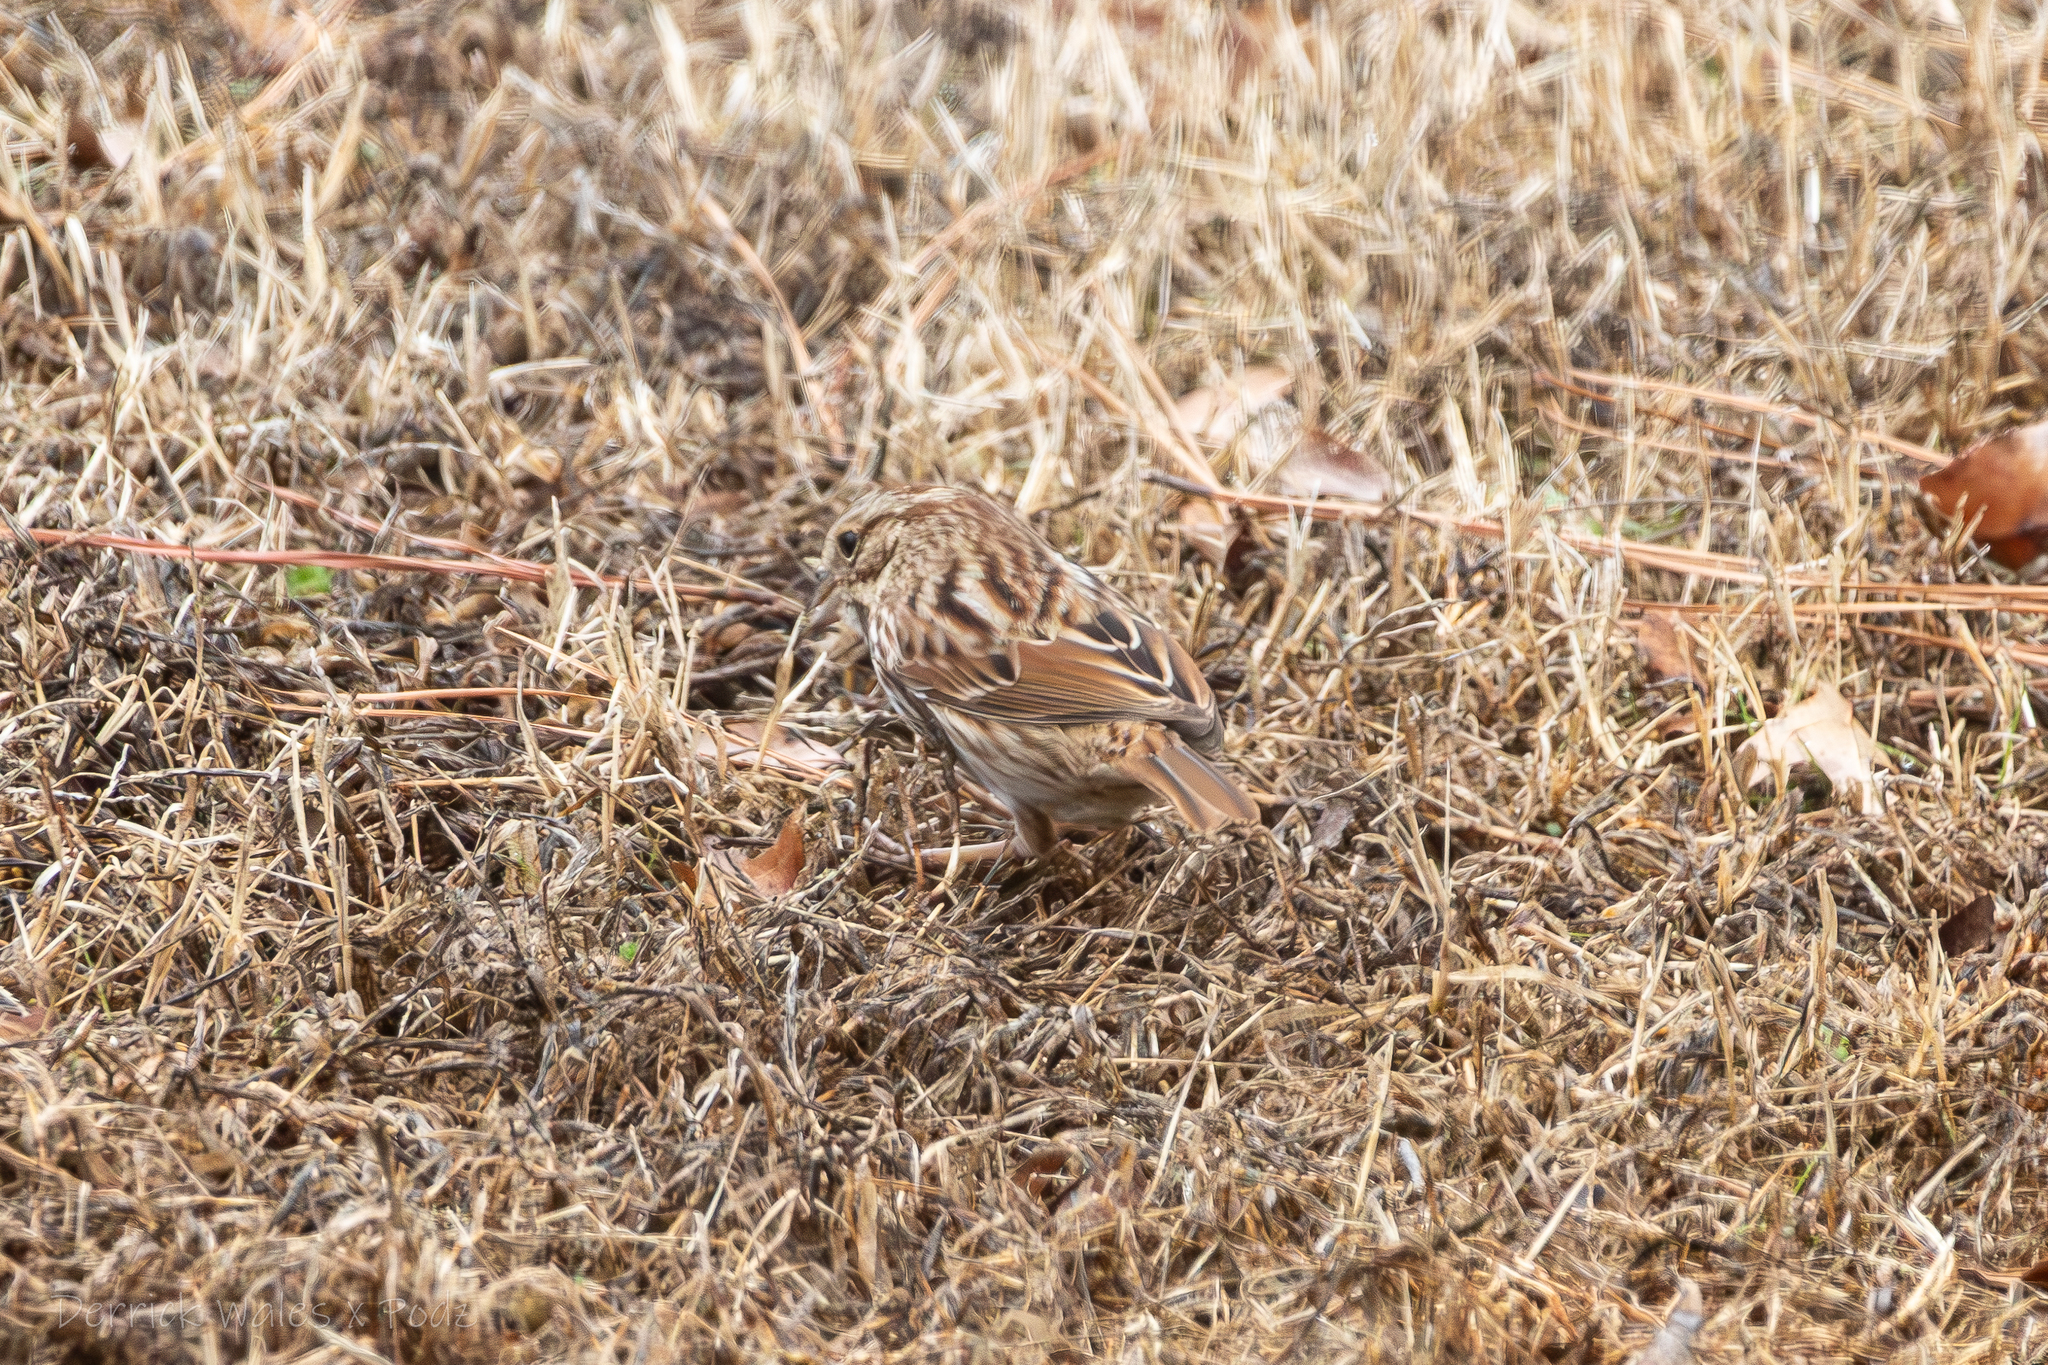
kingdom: Animalia
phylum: Chordata
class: Aves
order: Passeriformes
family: Passerellidae
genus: Melospiza
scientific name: Melospiza melodia
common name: Song sparrow
